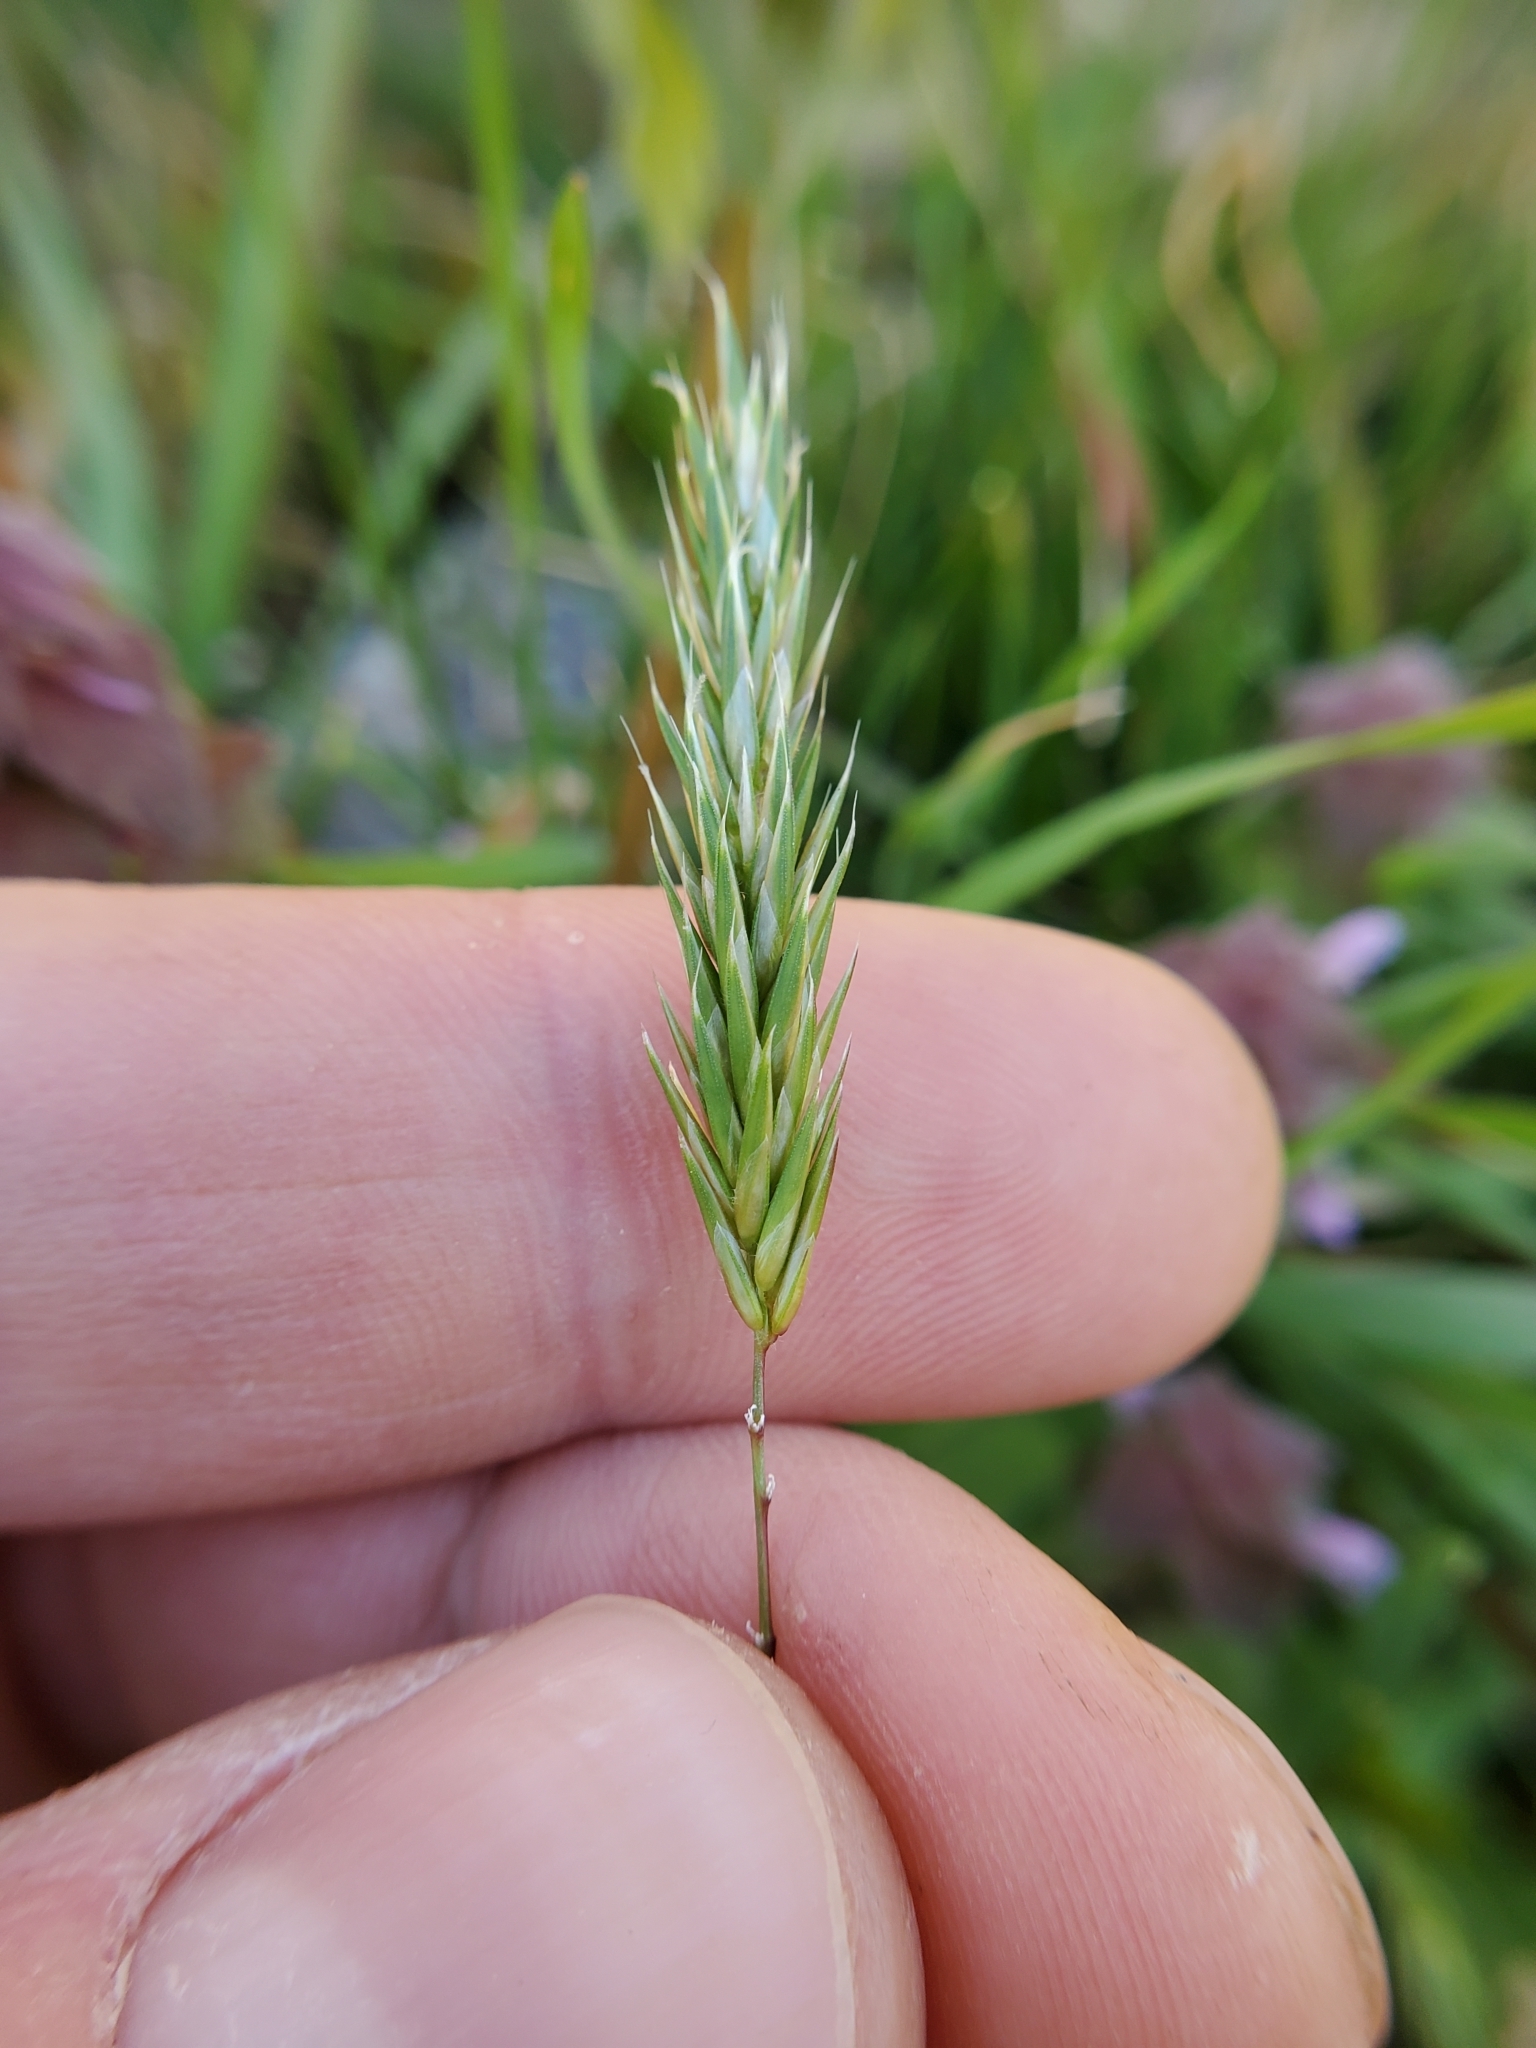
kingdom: Plantae
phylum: Tracheophyta
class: Liliopsida
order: Poales
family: Poaceae
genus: Anthoxanthum
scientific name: Anthoxanthum odoratum
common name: Sweet vernalgrass
